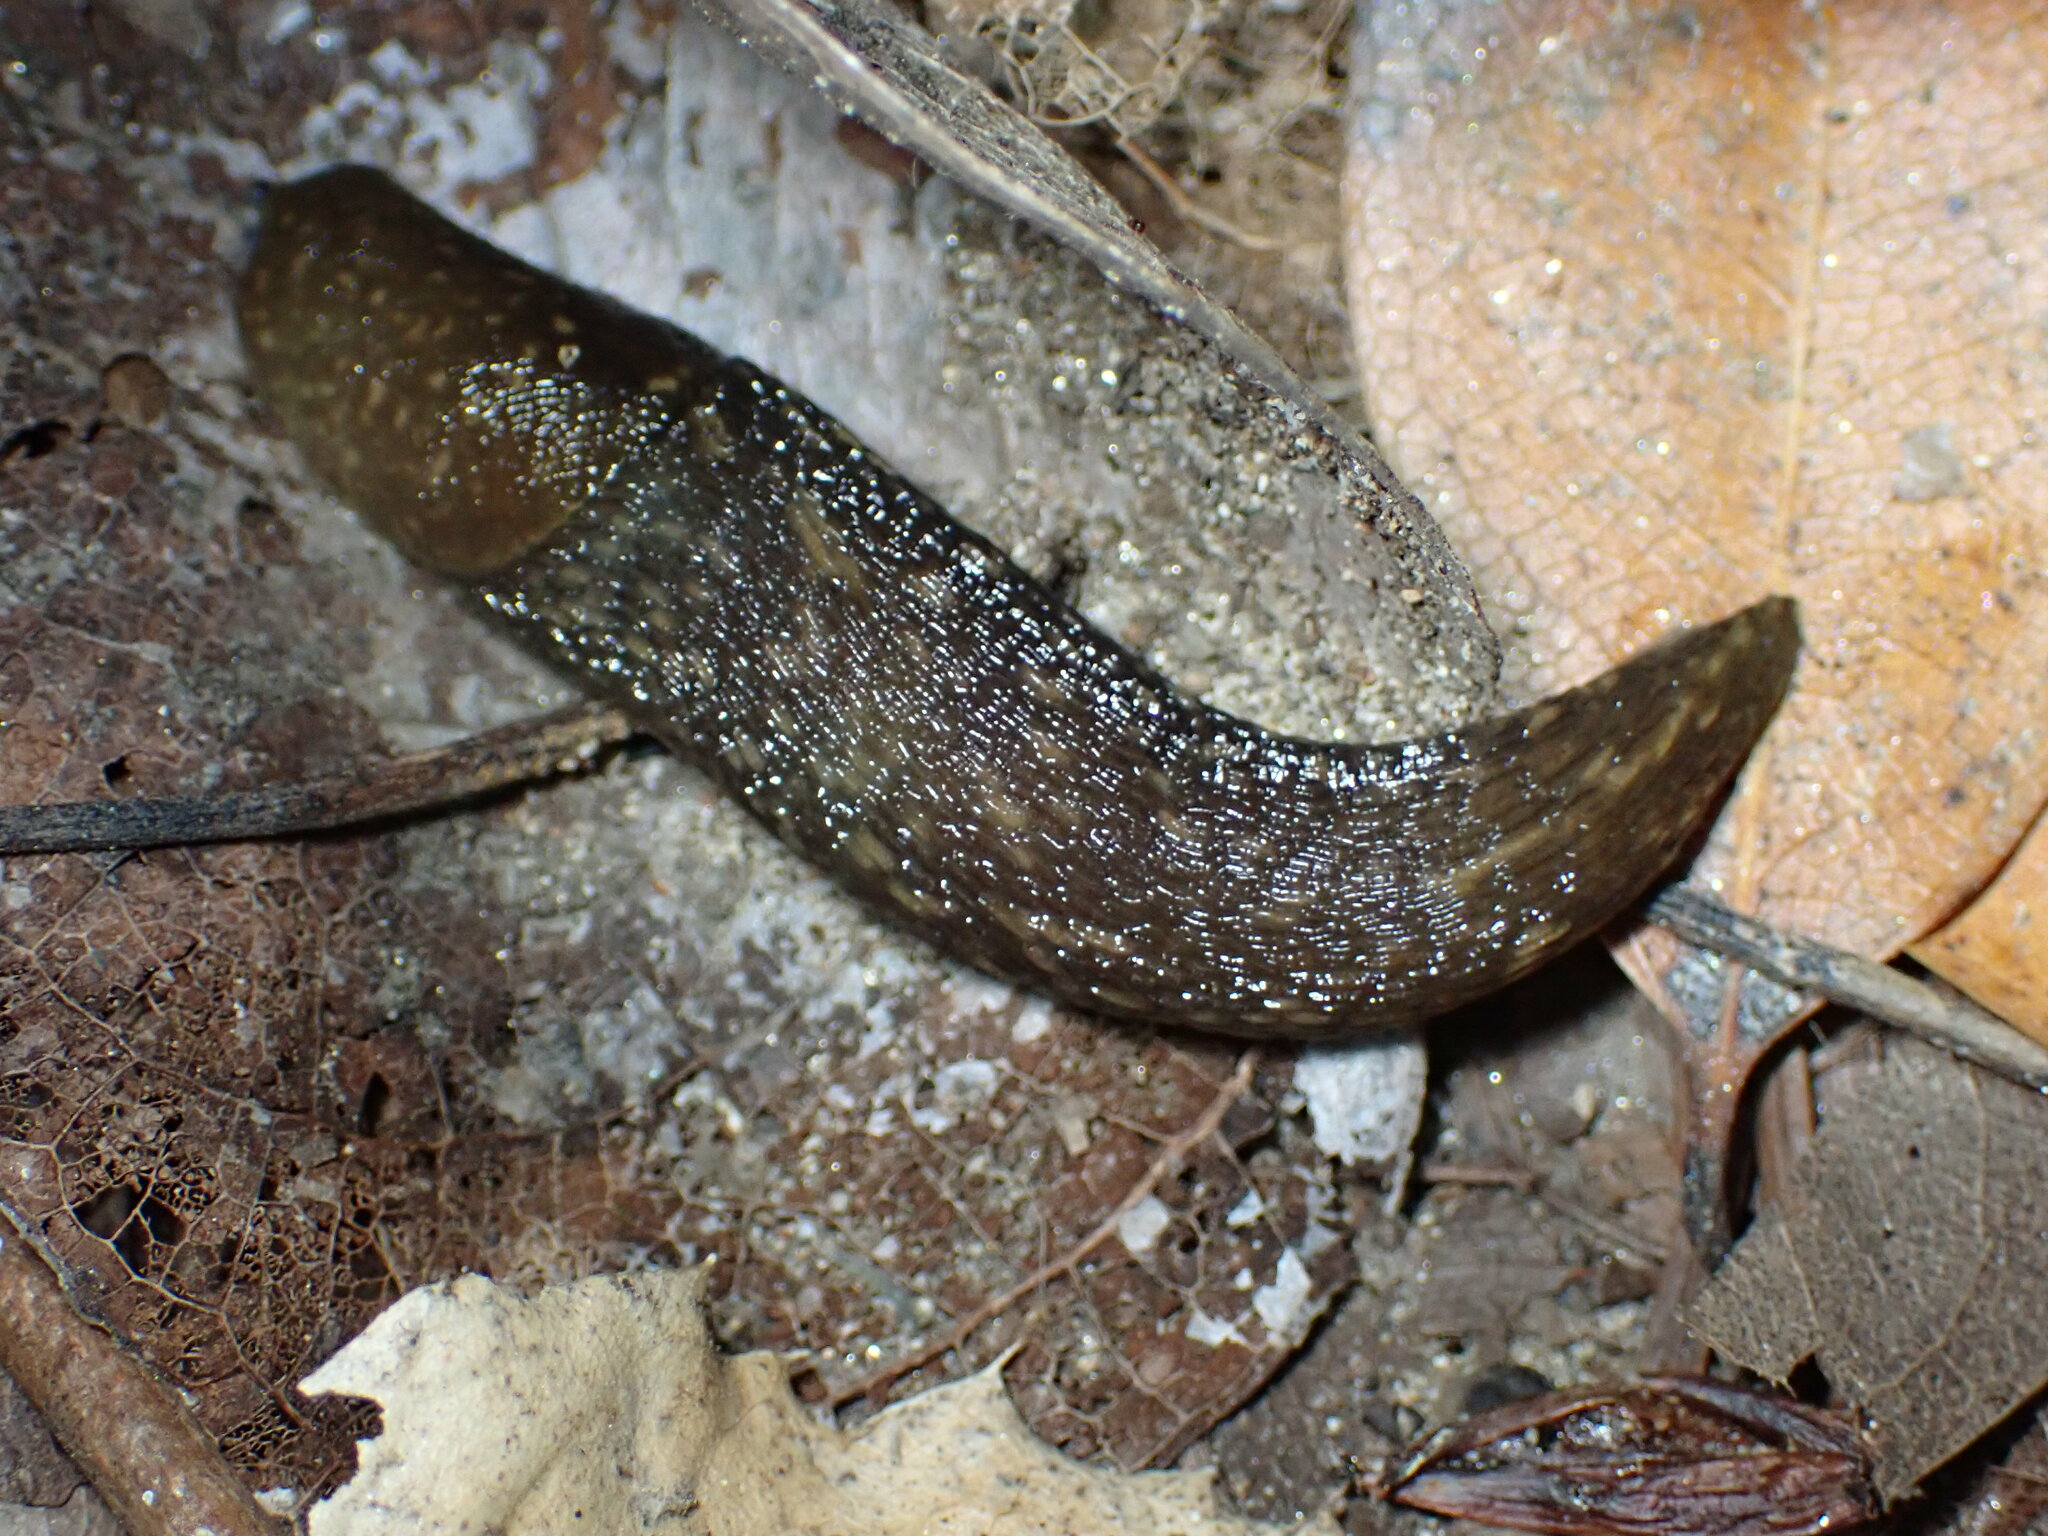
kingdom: Animalia
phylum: Mollusca
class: Gastropoda
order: Stylommatophora
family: Limacidae
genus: Limacus
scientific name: Limacus flavus
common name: Yellow gardenslug
